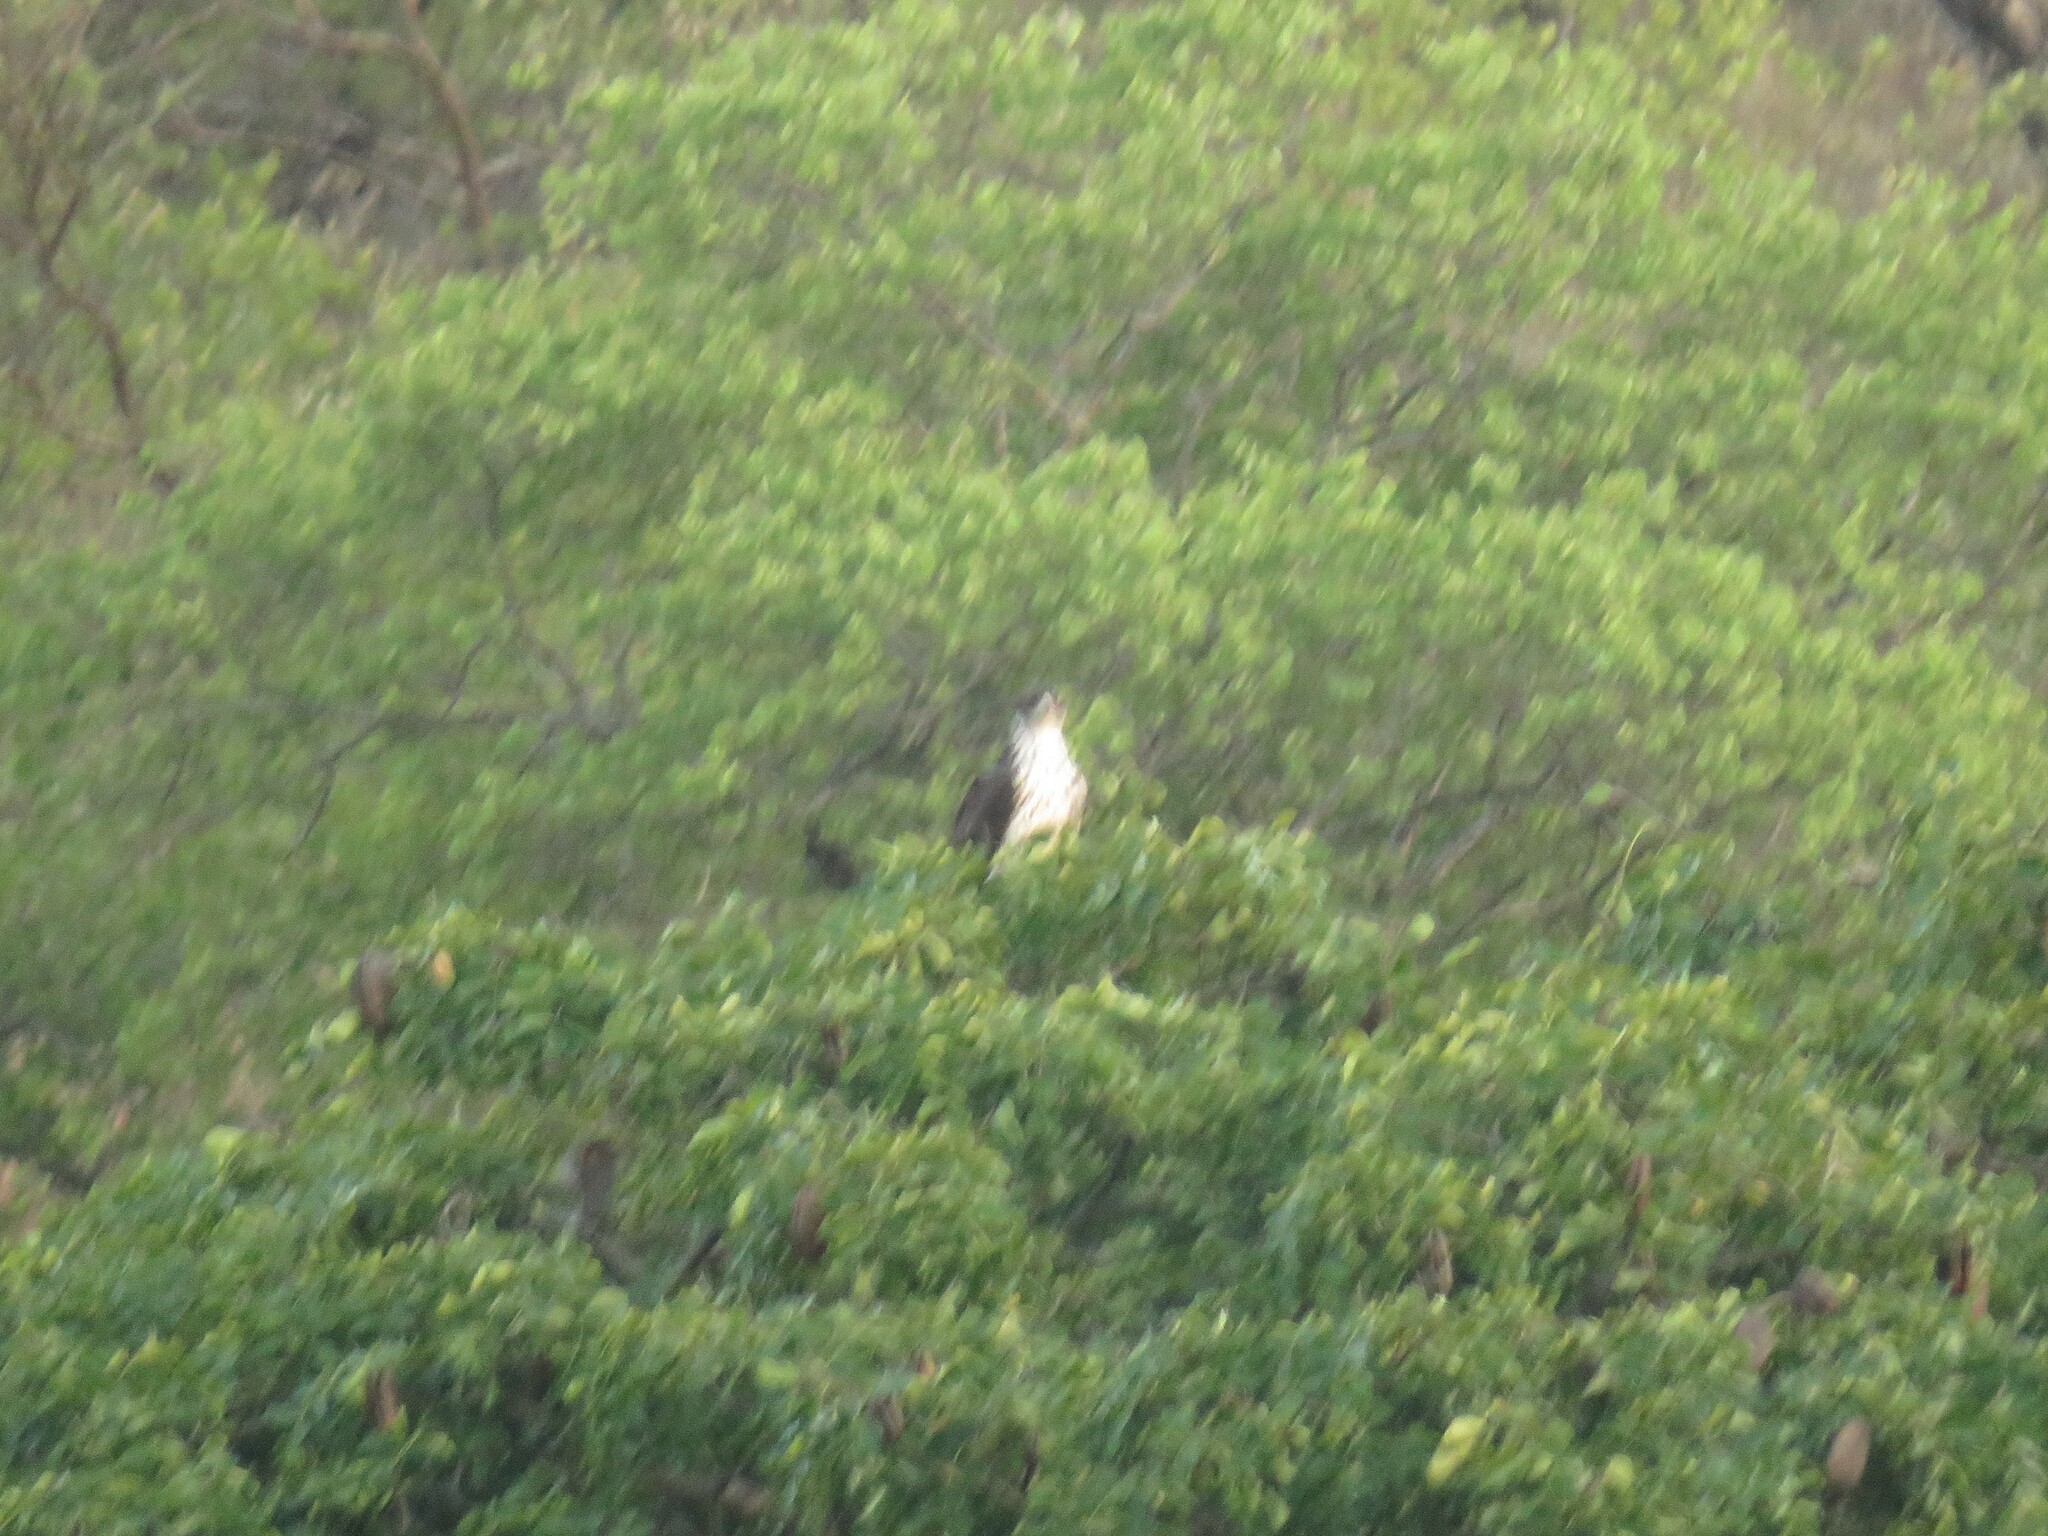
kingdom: Animalia
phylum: Chordata
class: Aves
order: Accipitriformes
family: Accipitridae
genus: Aquila
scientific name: Aquila spilogaster
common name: African hawk-eagle
